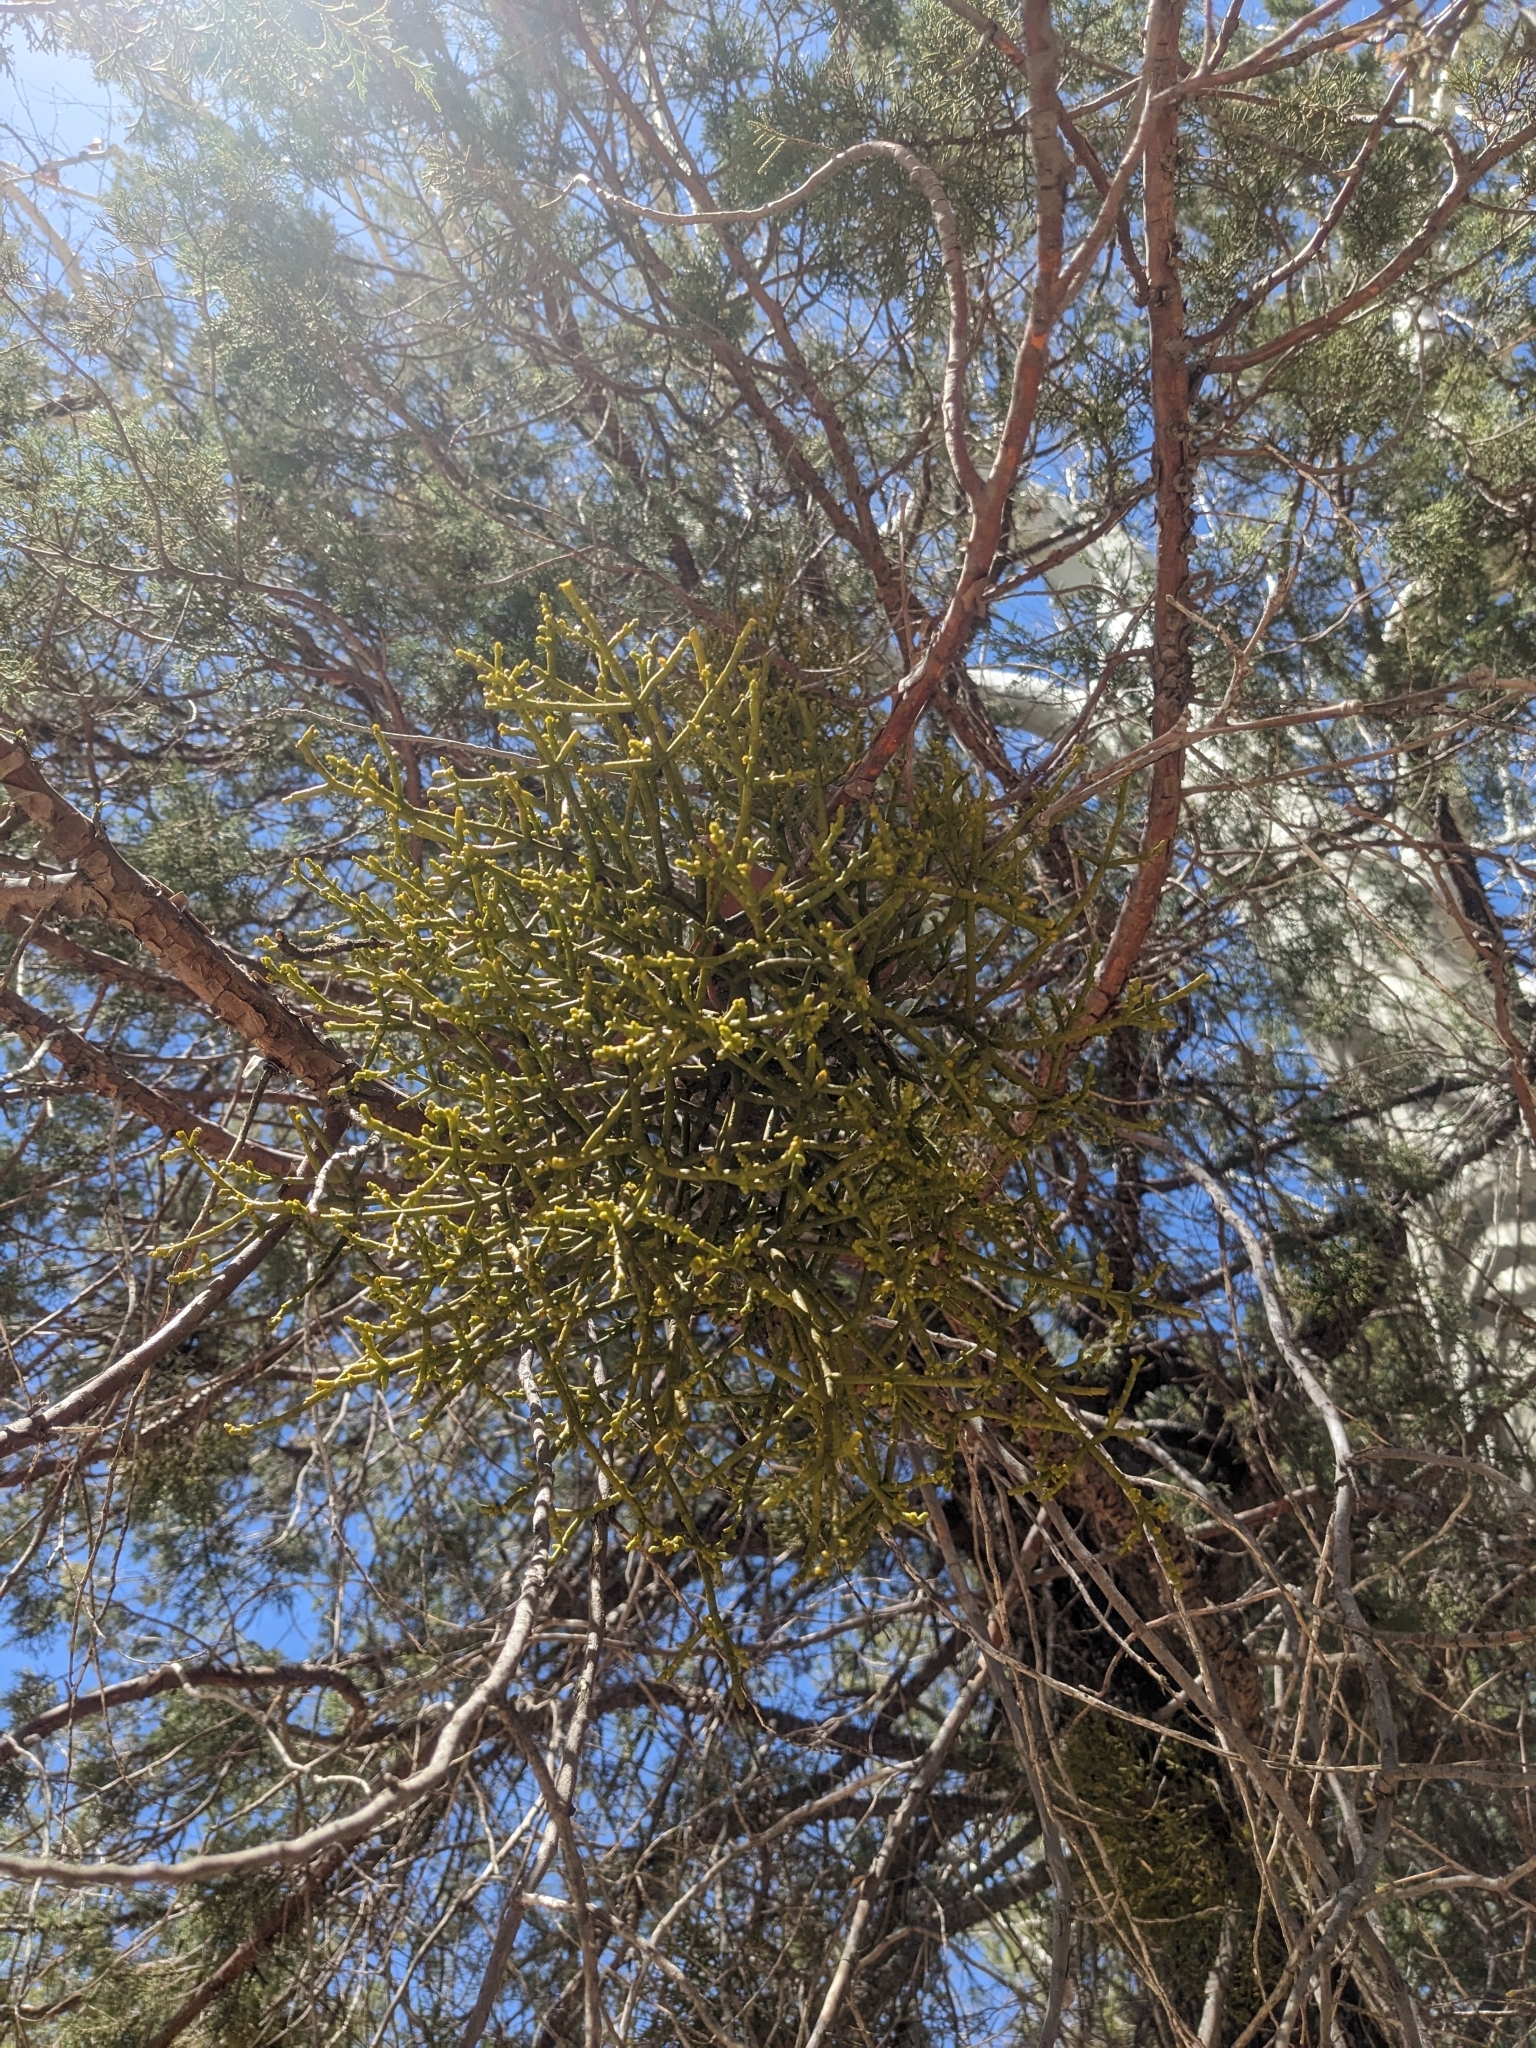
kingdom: Plantae
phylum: Tracheophyta
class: Magnoliopsida
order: Santalales
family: Viscaceae
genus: Phoradendron
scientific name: Phoradendron juniperinum
